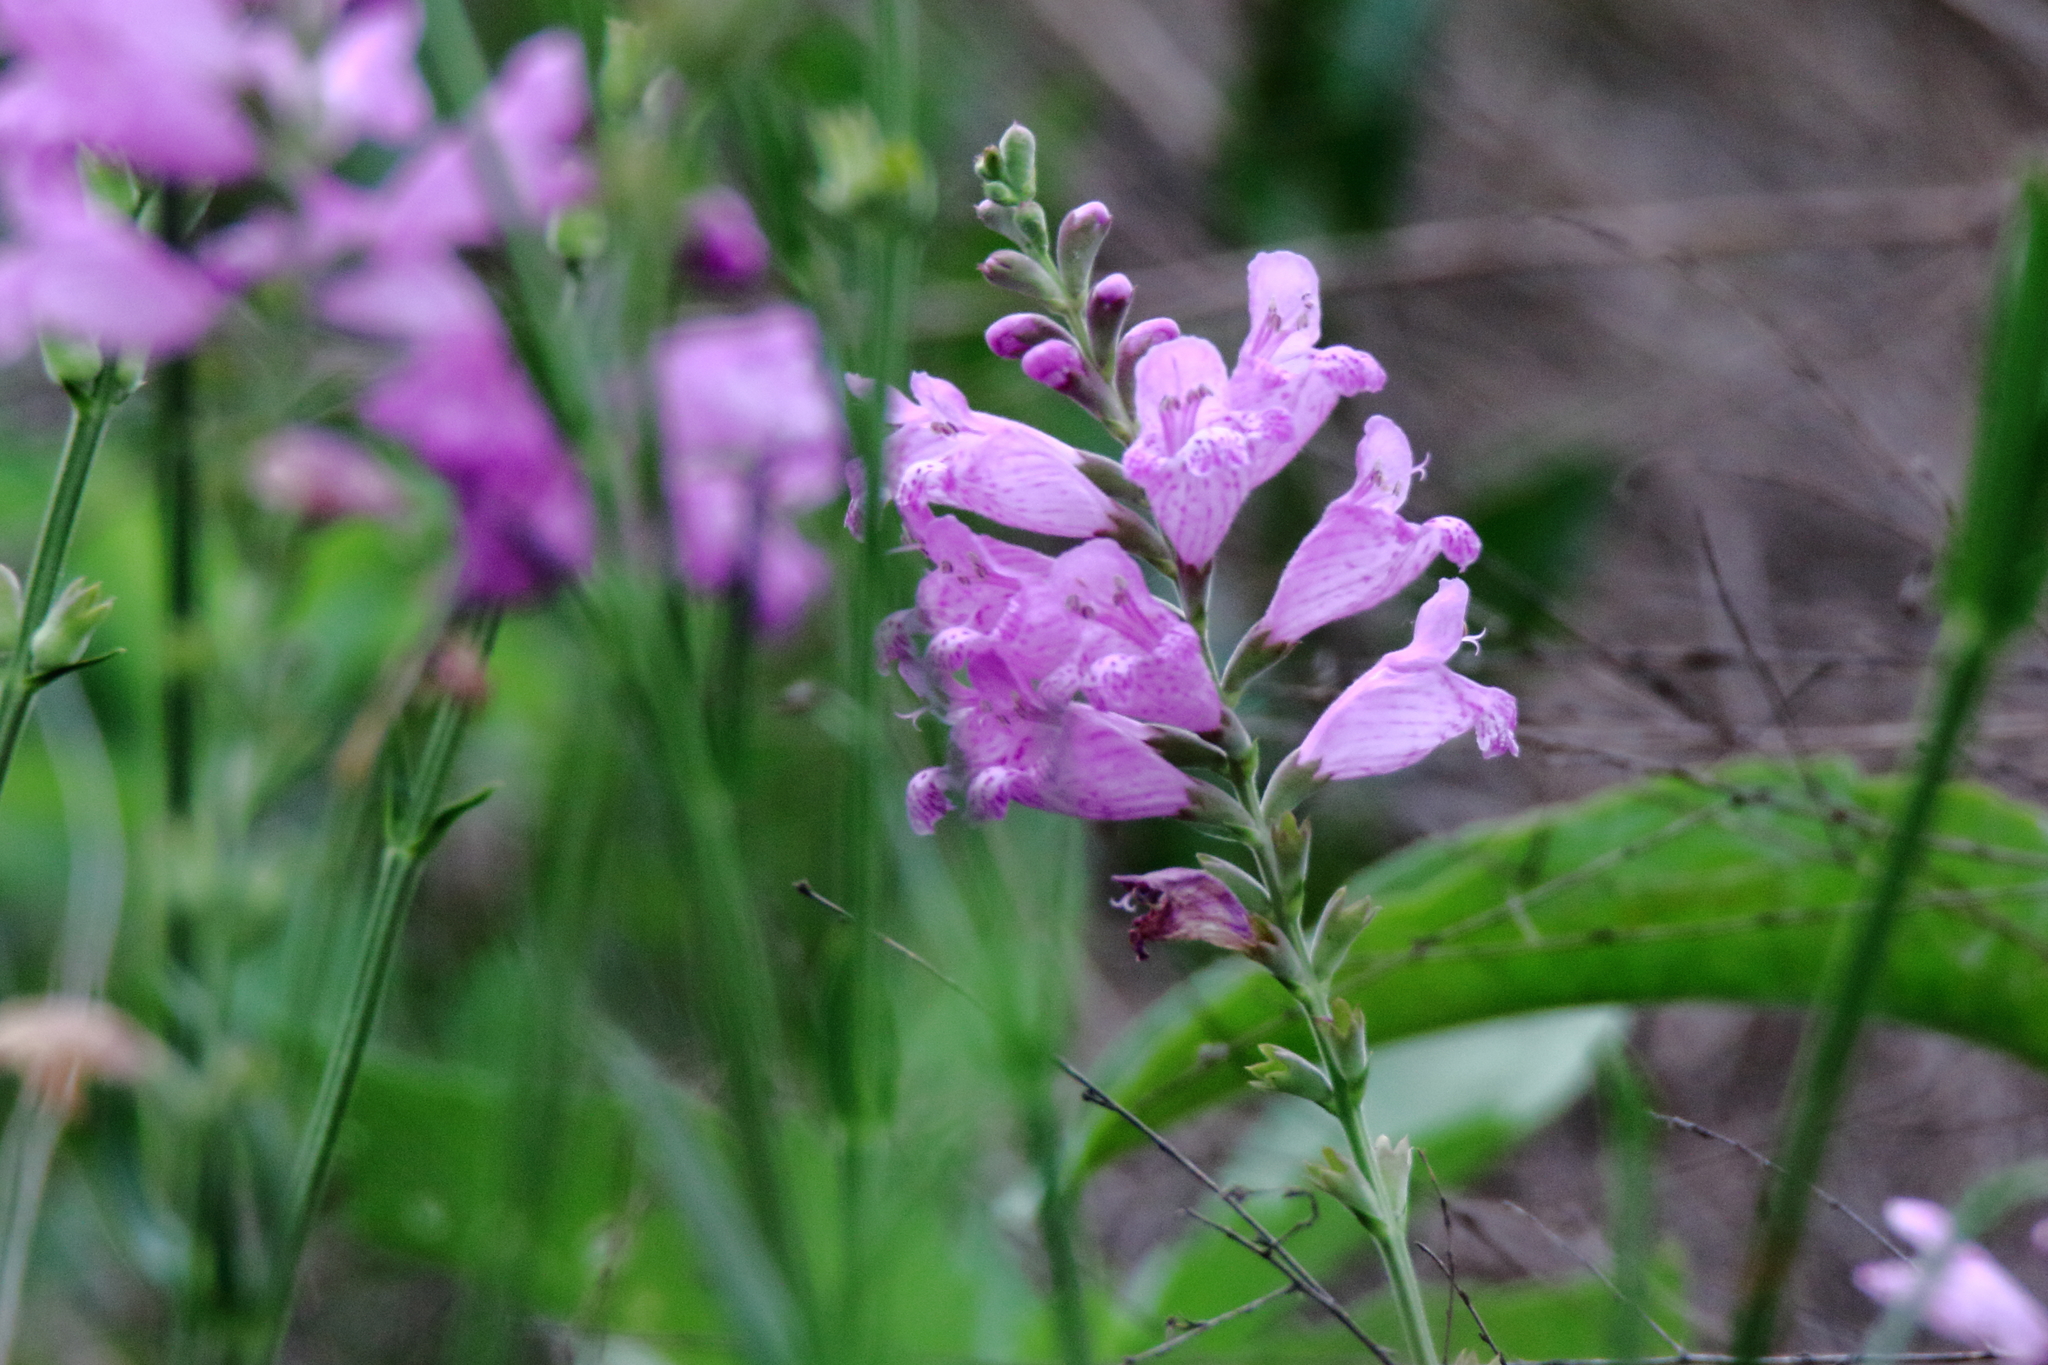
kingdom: Plantae
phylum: Tracheophyta
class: Magnoliopsida
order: Lamiales
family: Lamiaceae
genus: Physostegia
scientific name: Physostegia virginiana
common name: Obedient-plant
